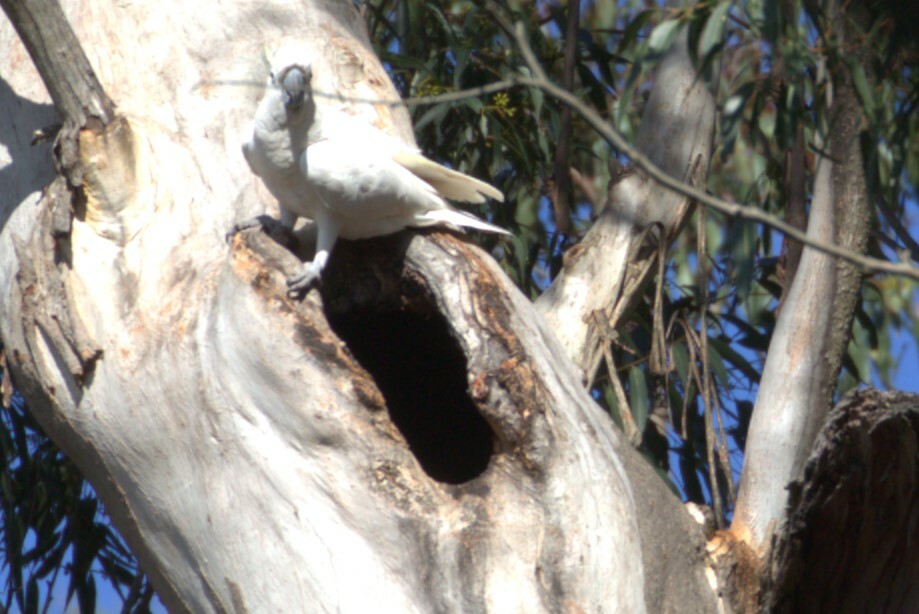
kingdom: Animalia
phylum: Chordata
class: Aves
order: Psittaciformes
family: Psittacidae
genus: Cacatua
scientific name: Cacatua galerita
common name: Sulphur-crested cockatoo
